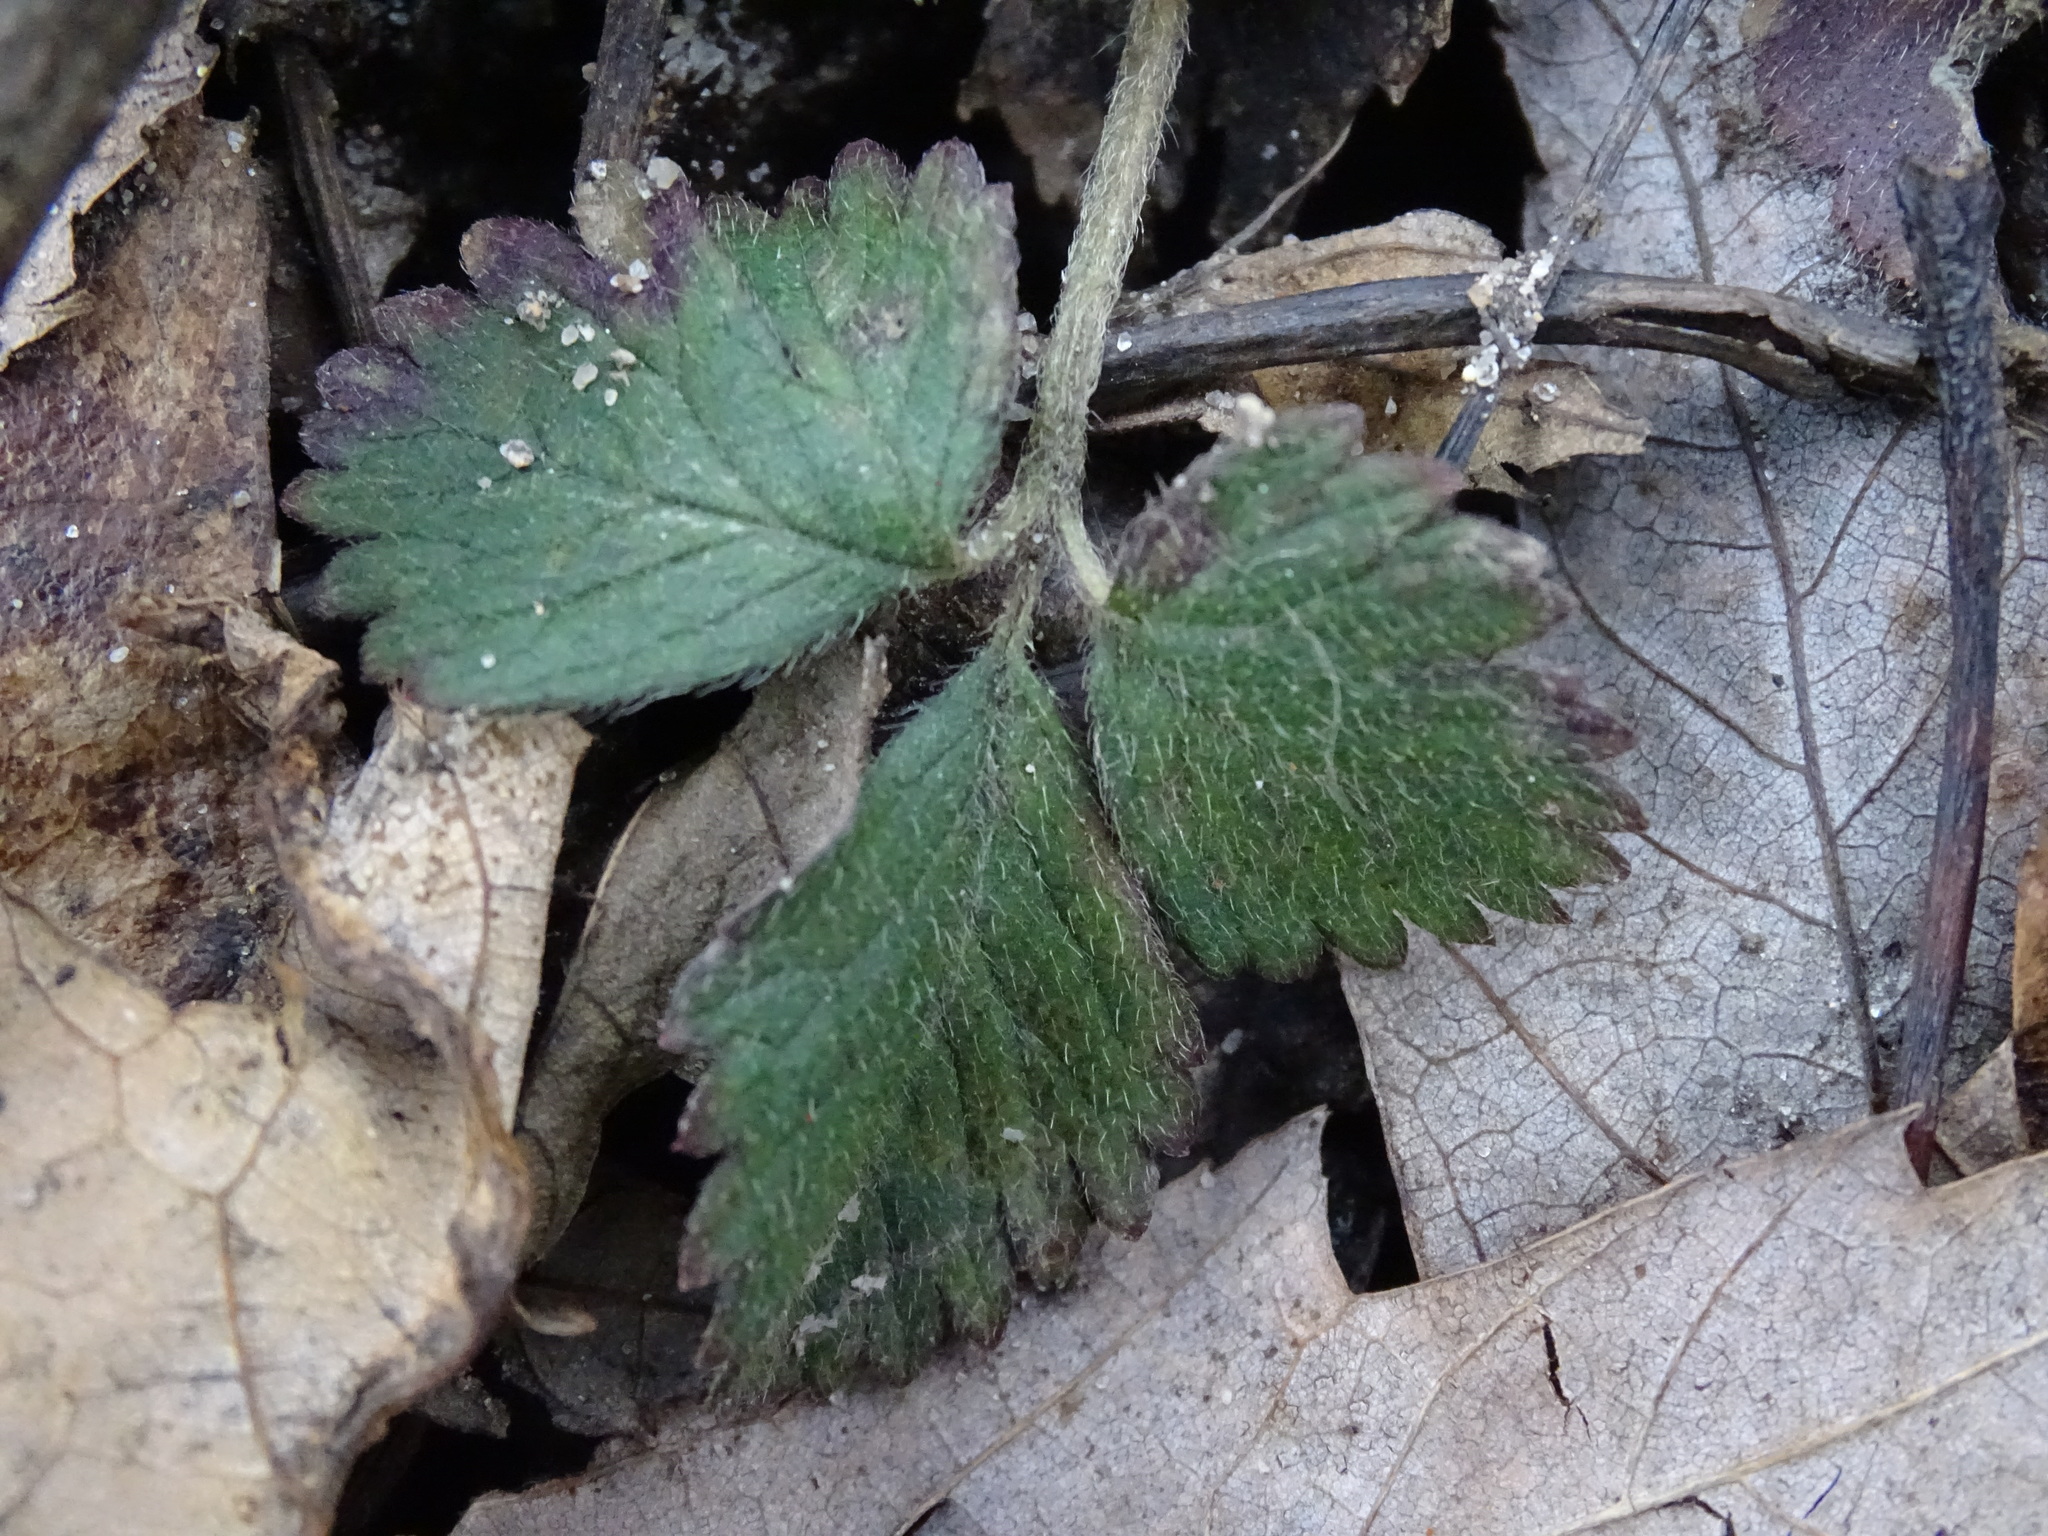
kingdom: Plantae
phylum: Tracheophyta
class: Magnoliopsida
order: Rosales
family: Rosaceae
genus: Potentilla
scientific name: Potentilla indica
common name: Yellow-flowered strawberry
